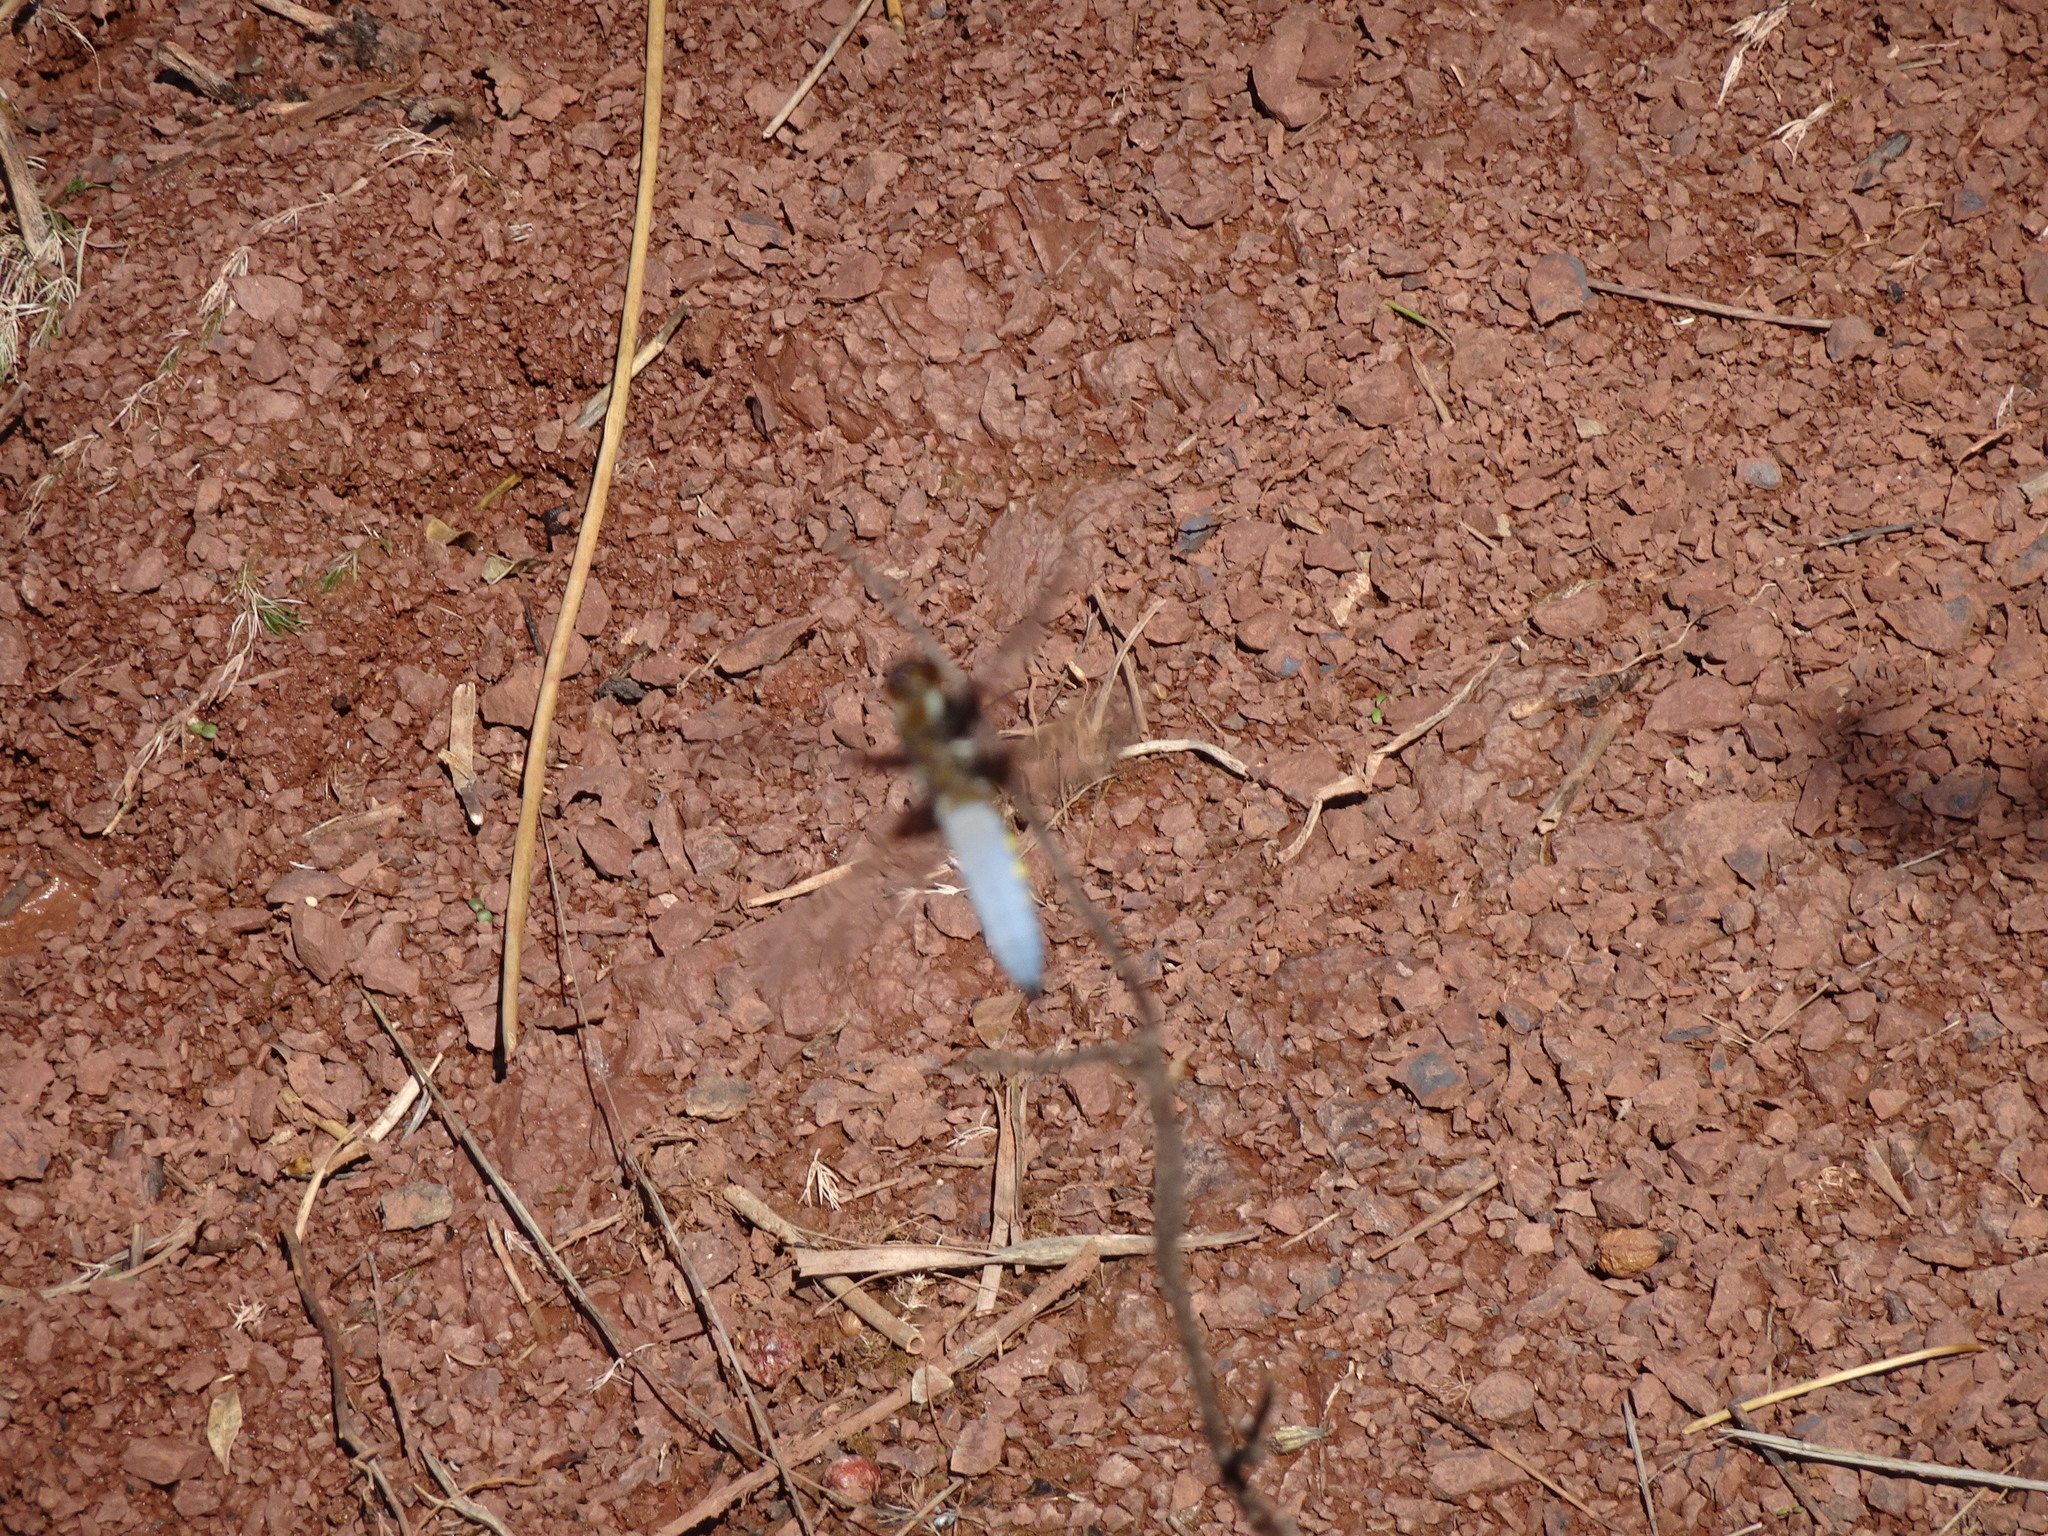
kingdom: Animalia
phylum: Arthropoda
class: Insecta
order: Odonata
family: Libellulidae
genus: Libellula
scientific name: Libellula depressa
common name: Broad-bodied chaser
